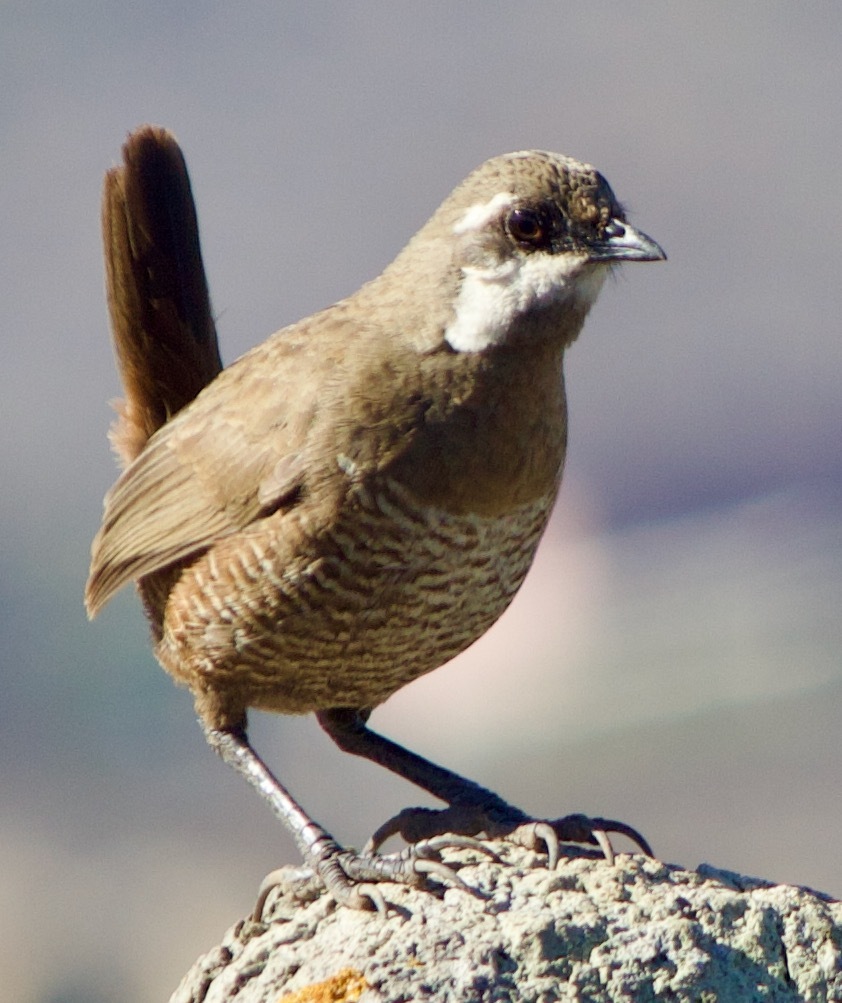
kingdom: Animalia
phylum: Chordata
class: Aves
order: Passeriformes
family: Rhinocryptidae
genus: Pteroptochos
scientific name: Pteroptochos megapodius
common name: Moustached turca
